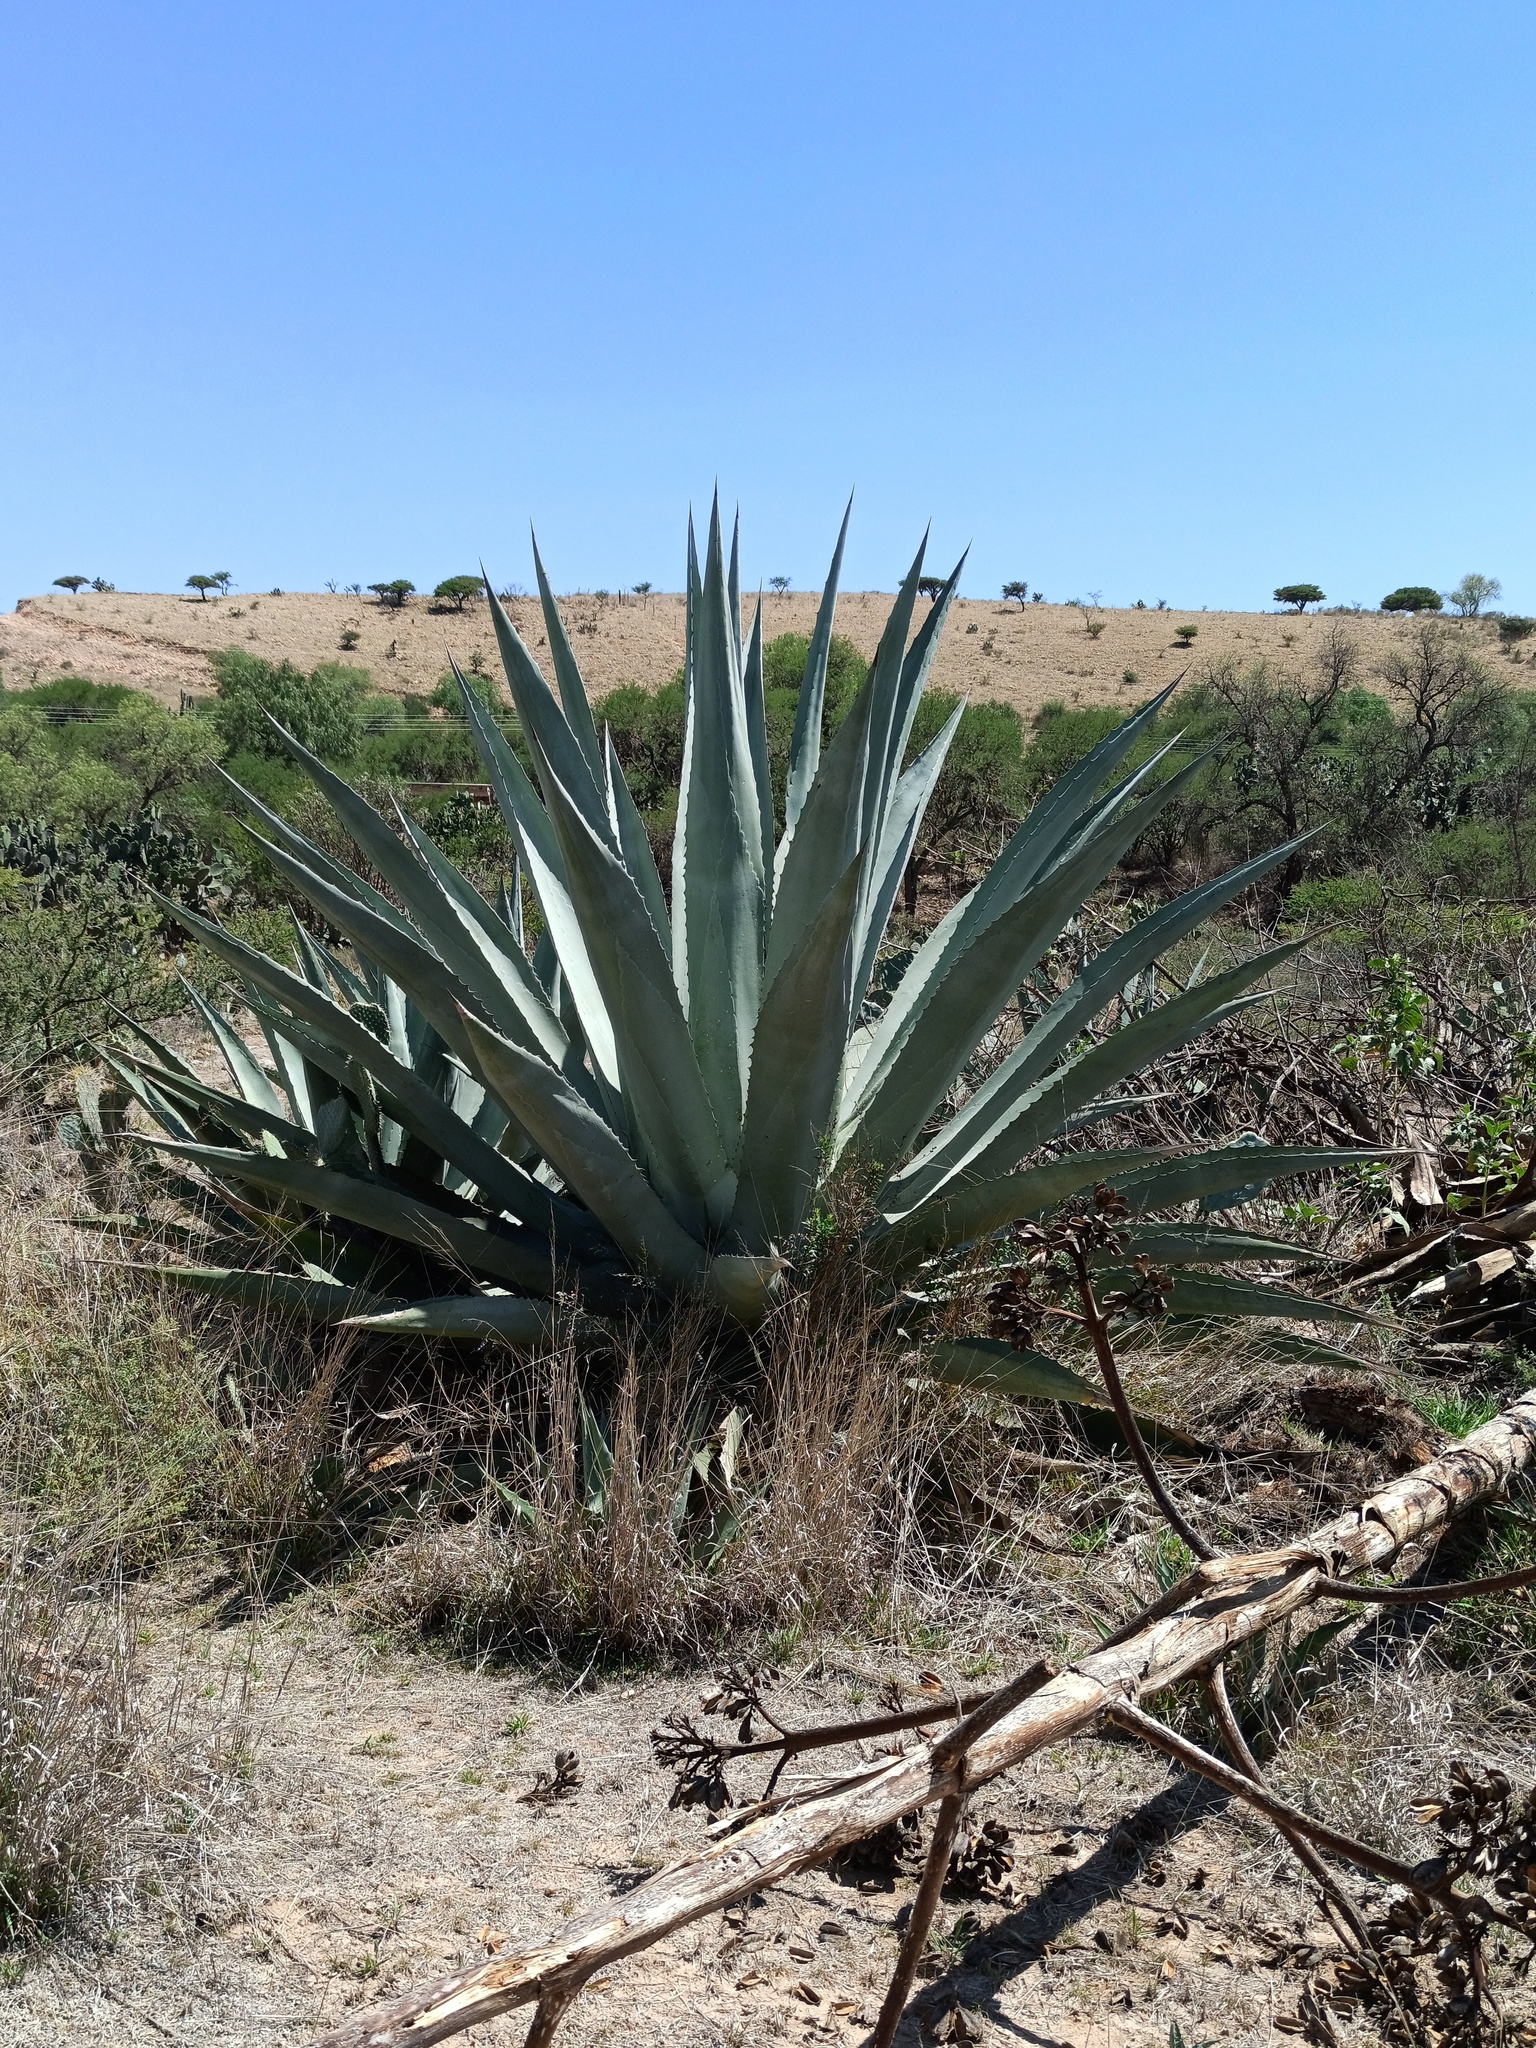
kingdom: Plantae
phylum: Tracheophyta
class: Liliopsida
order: Asparagales
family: Asparagaceae
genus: Agave
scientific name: Agave americana
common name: Centuryplant
